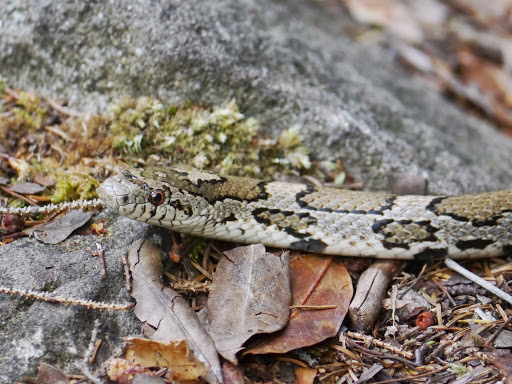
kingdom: Animalia
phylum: Chordata
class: Squamata
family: Colubridae
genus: Lampropeltis
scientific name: Lampropeltis triangulum
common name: Eastern milksnake
